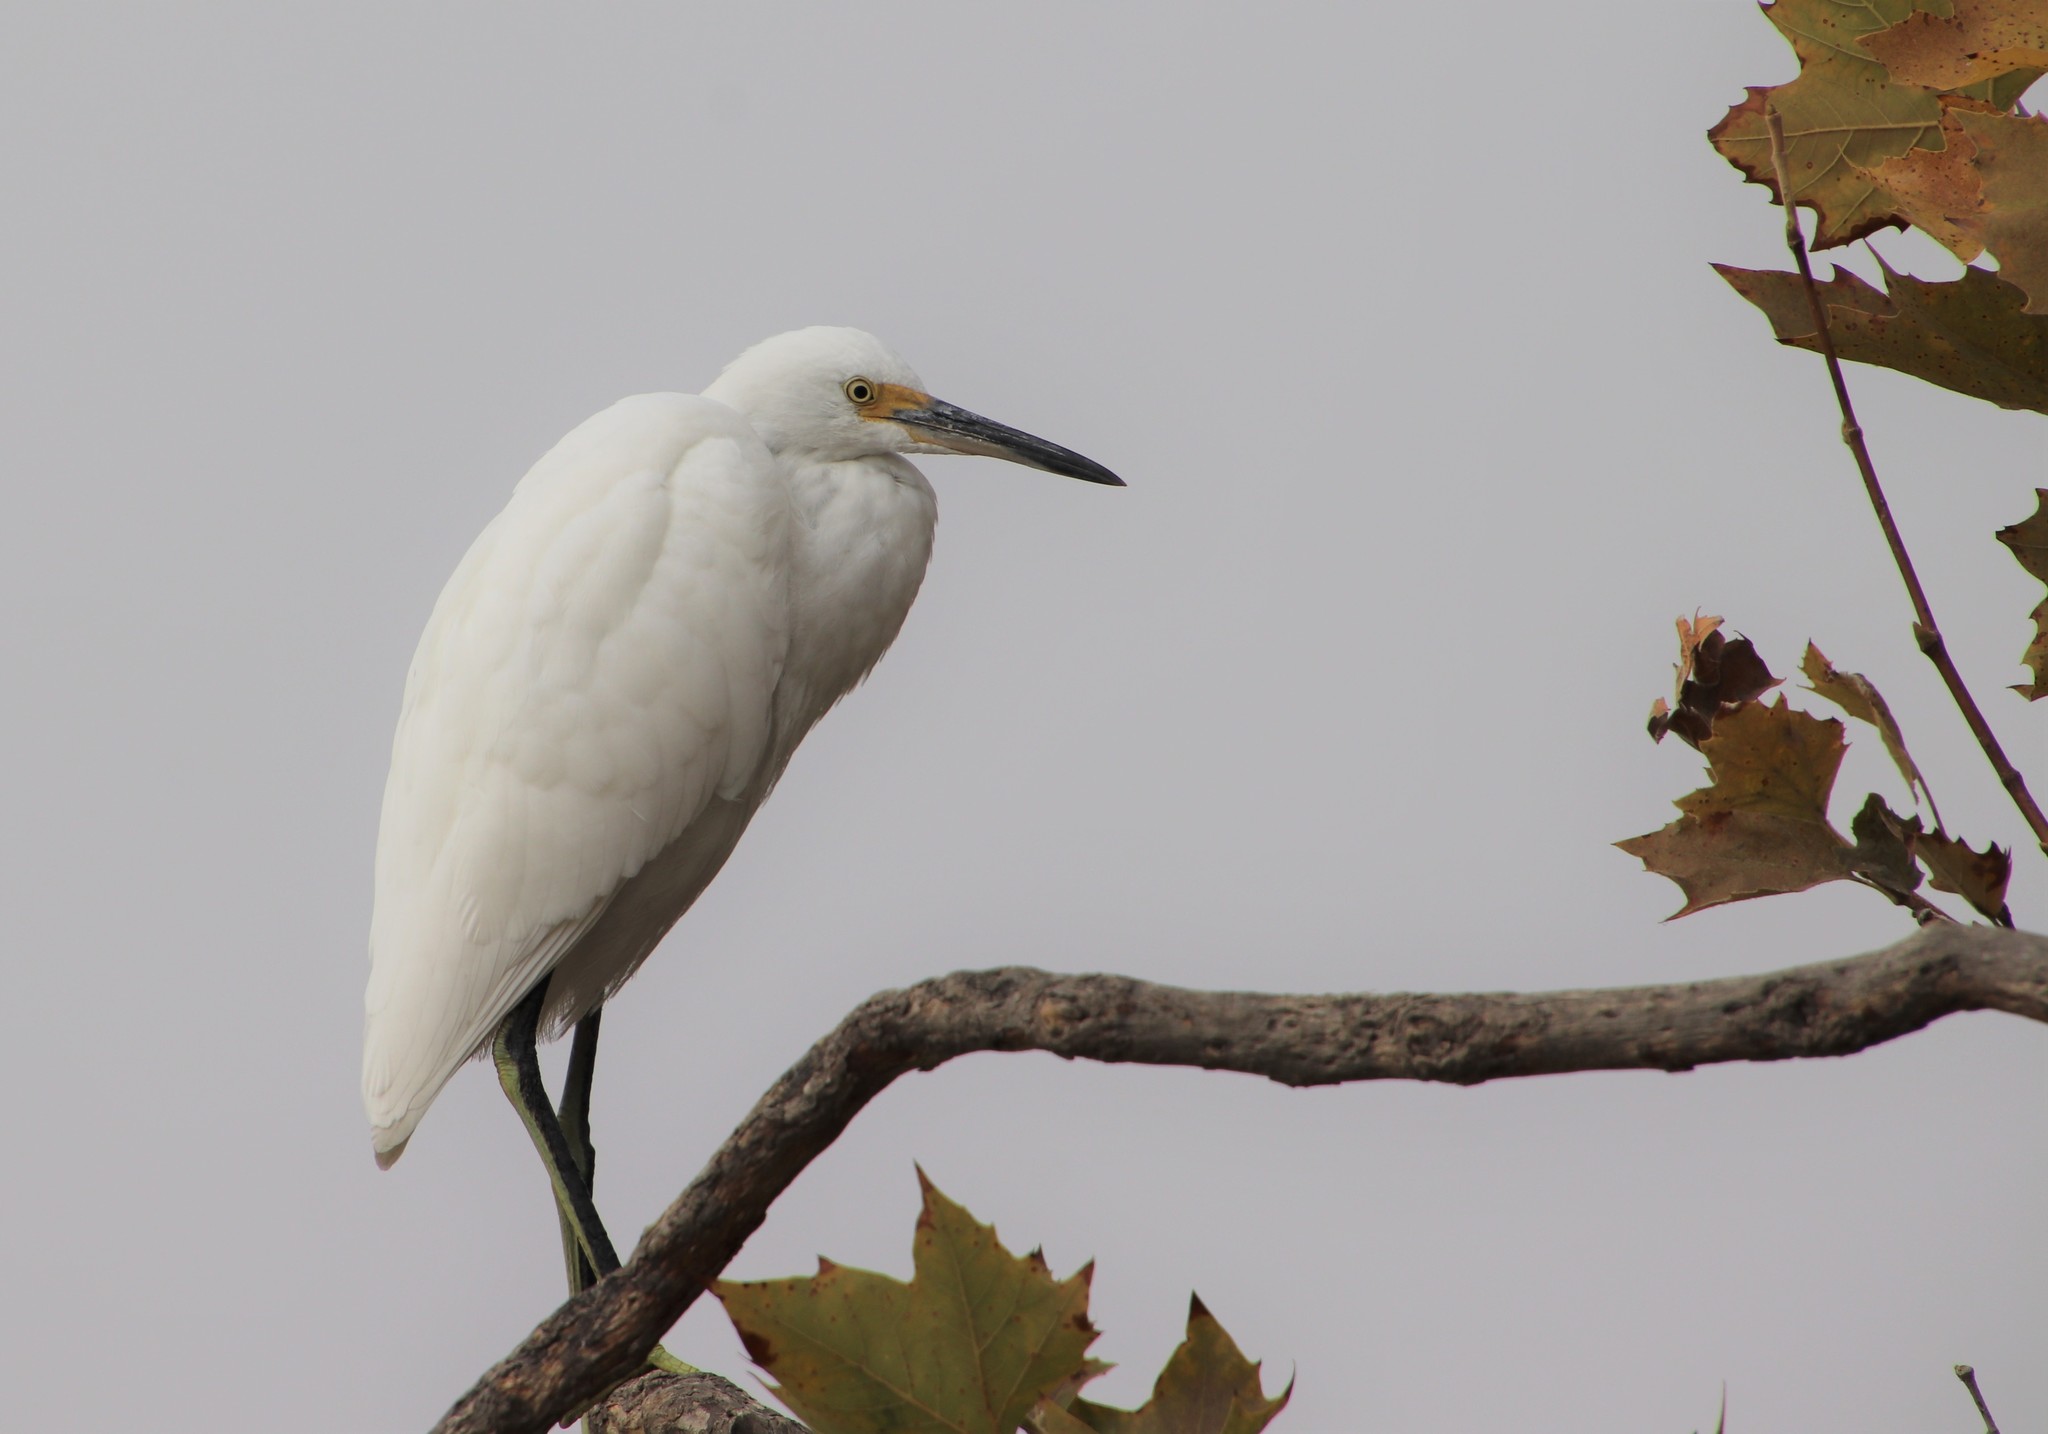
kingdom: Animalia
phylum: Chordata
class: Aves
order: Pelecaniformes
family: Ardeidae
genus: Egretta
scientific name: Egretta thula
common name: Snowy egret
